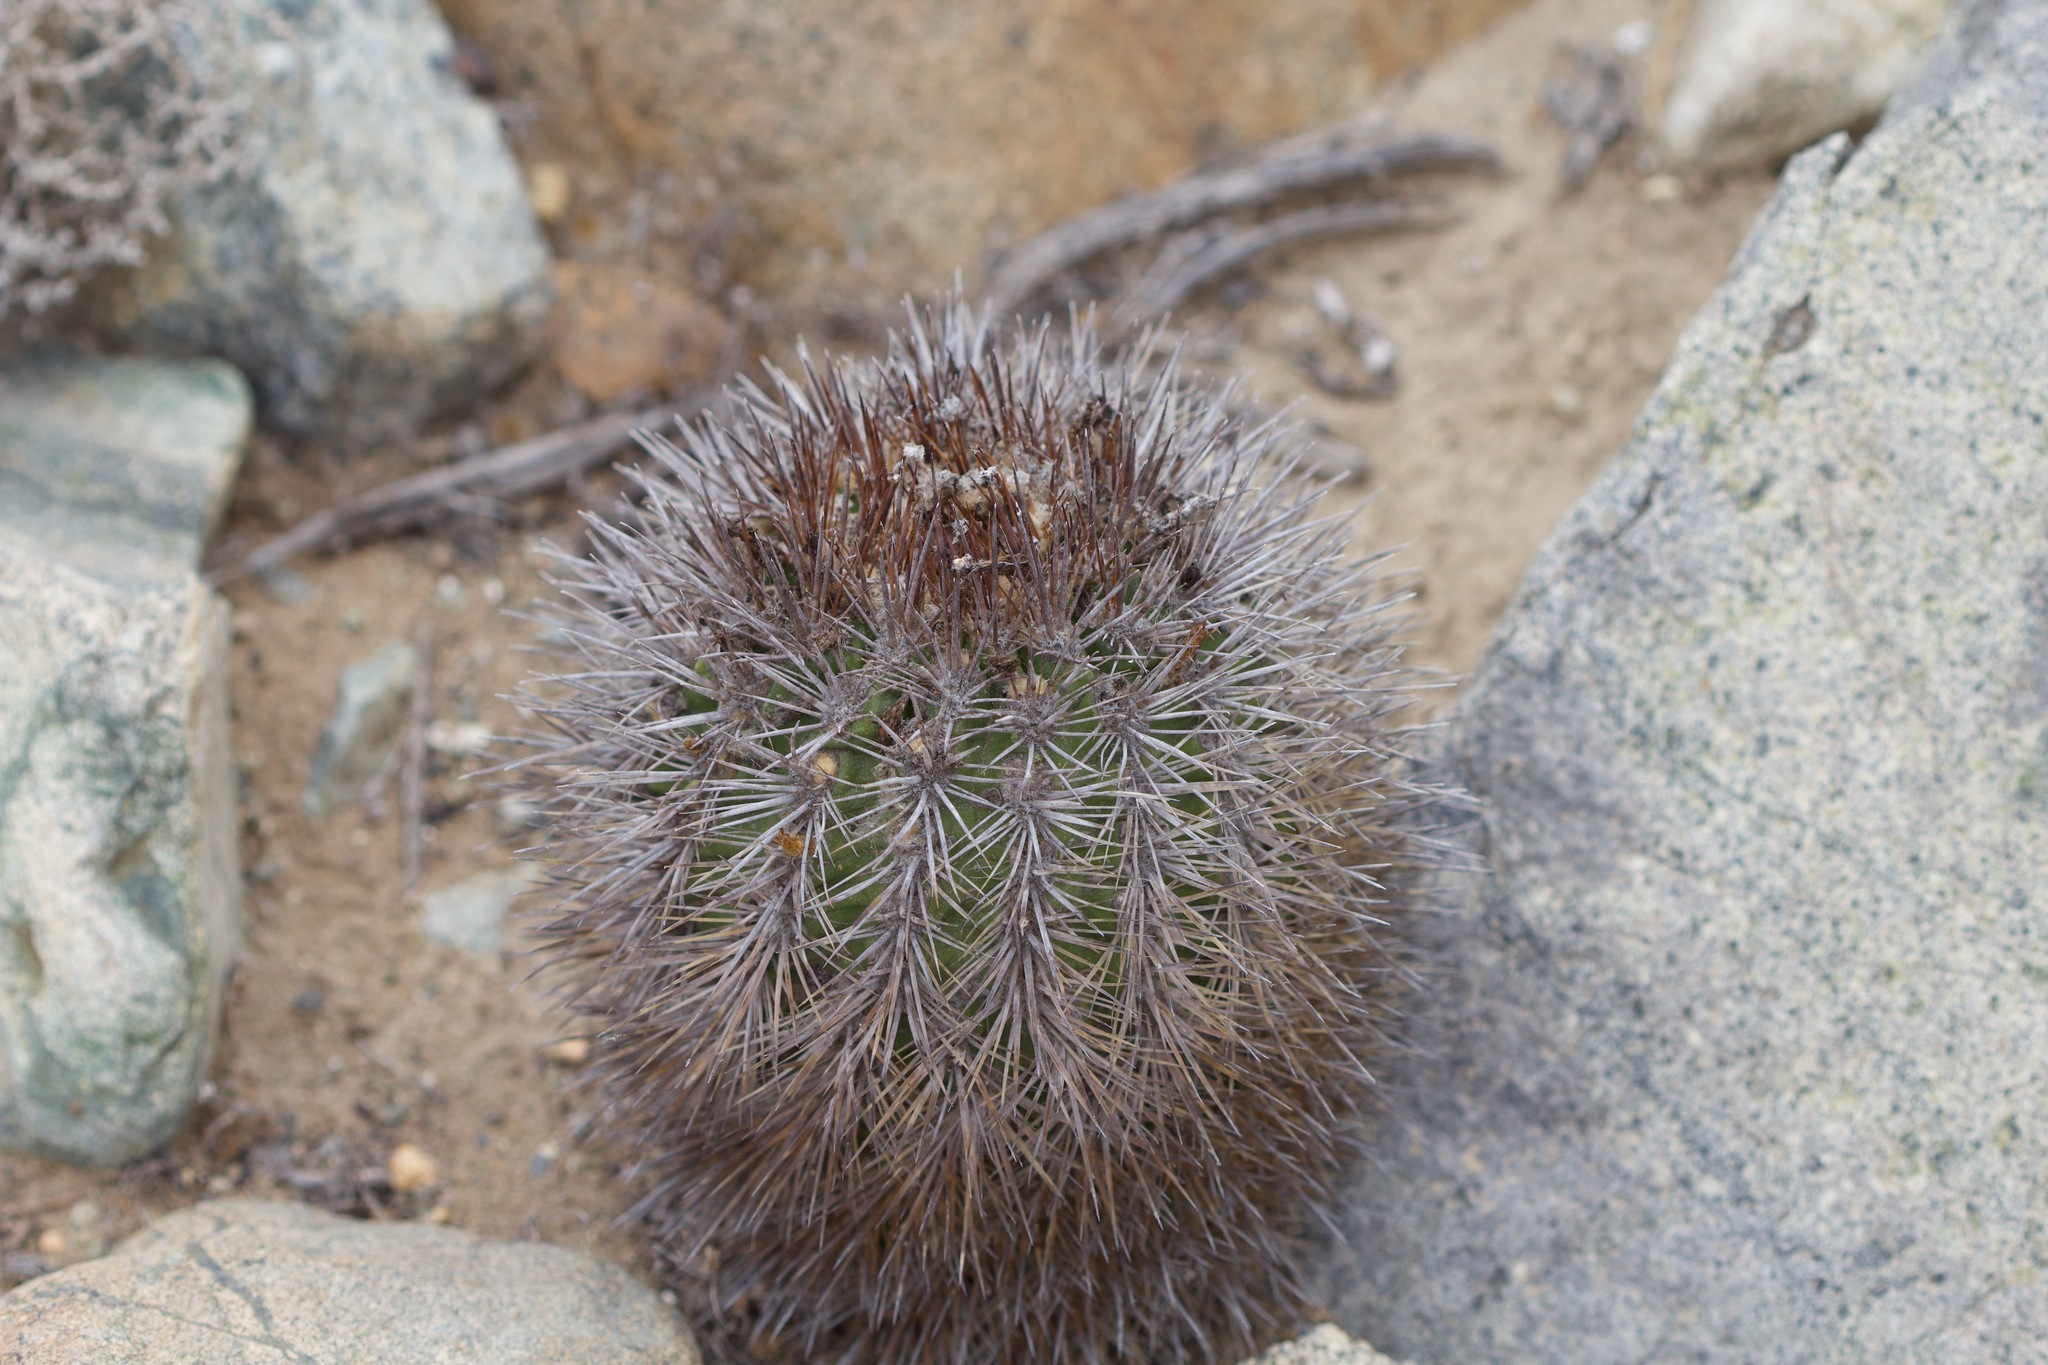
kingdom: Plantae
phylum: Tracheophyta
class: Magnoliopsida
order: Caryophyllales
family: Cactaceae
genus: Eriosyce
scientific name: Eriosyce subgibbosa
